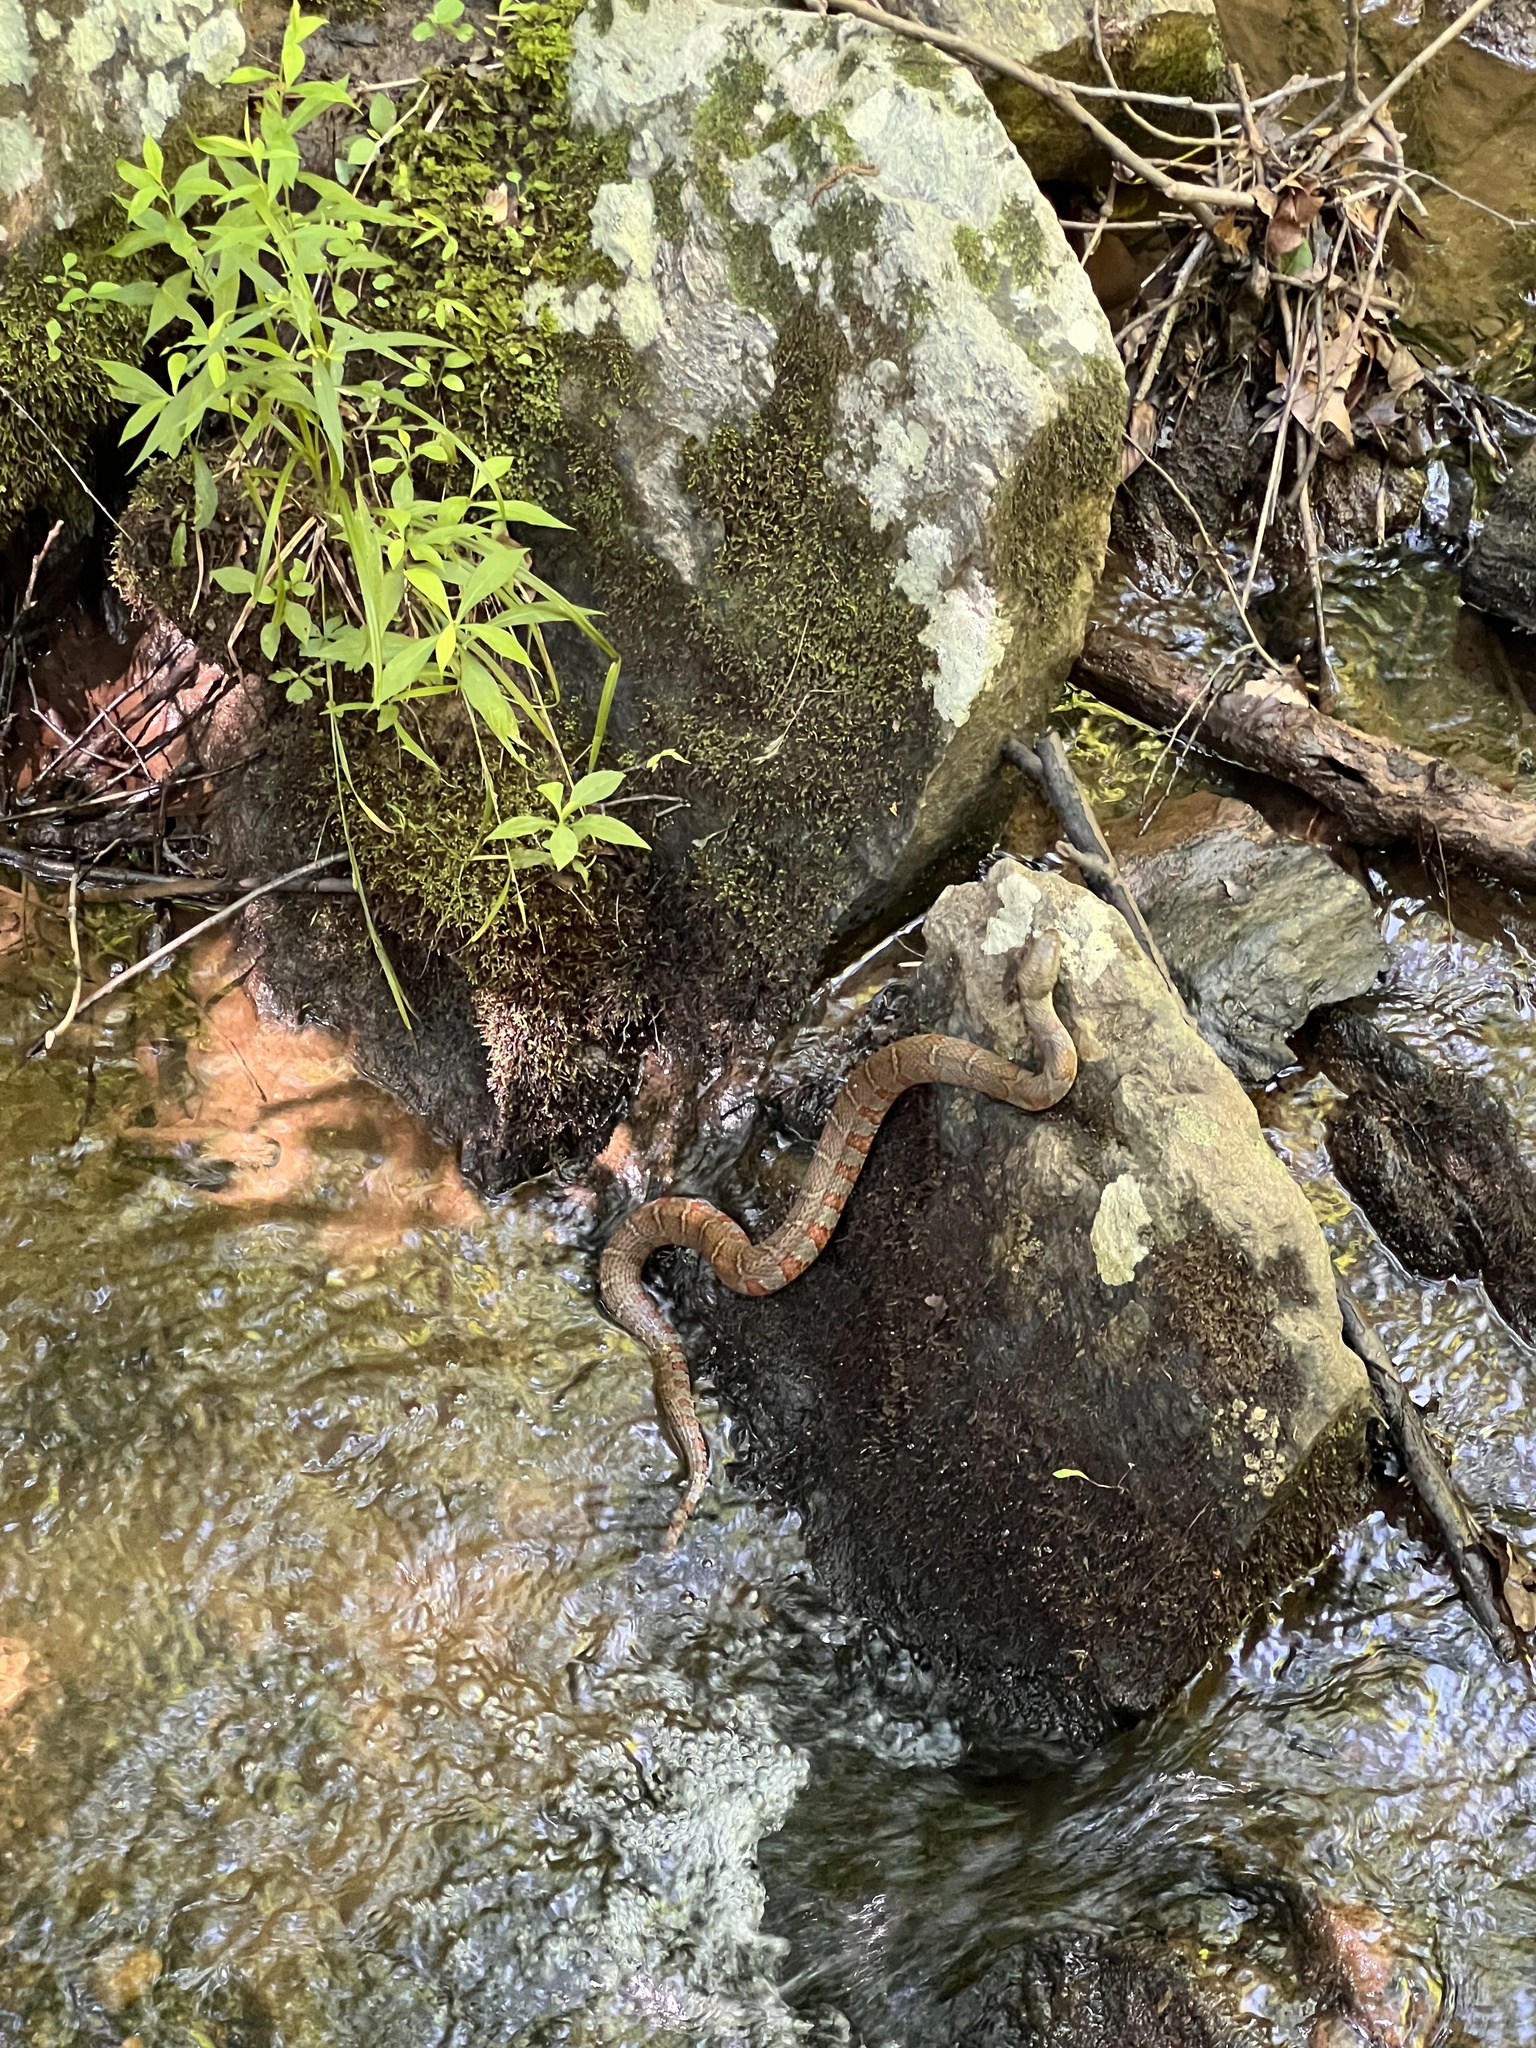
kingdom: Animalia
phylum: Chordata
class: Squamata
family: Colubridae
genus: Nerodia
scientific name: Nerodia sipedon
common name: Northern water snake
